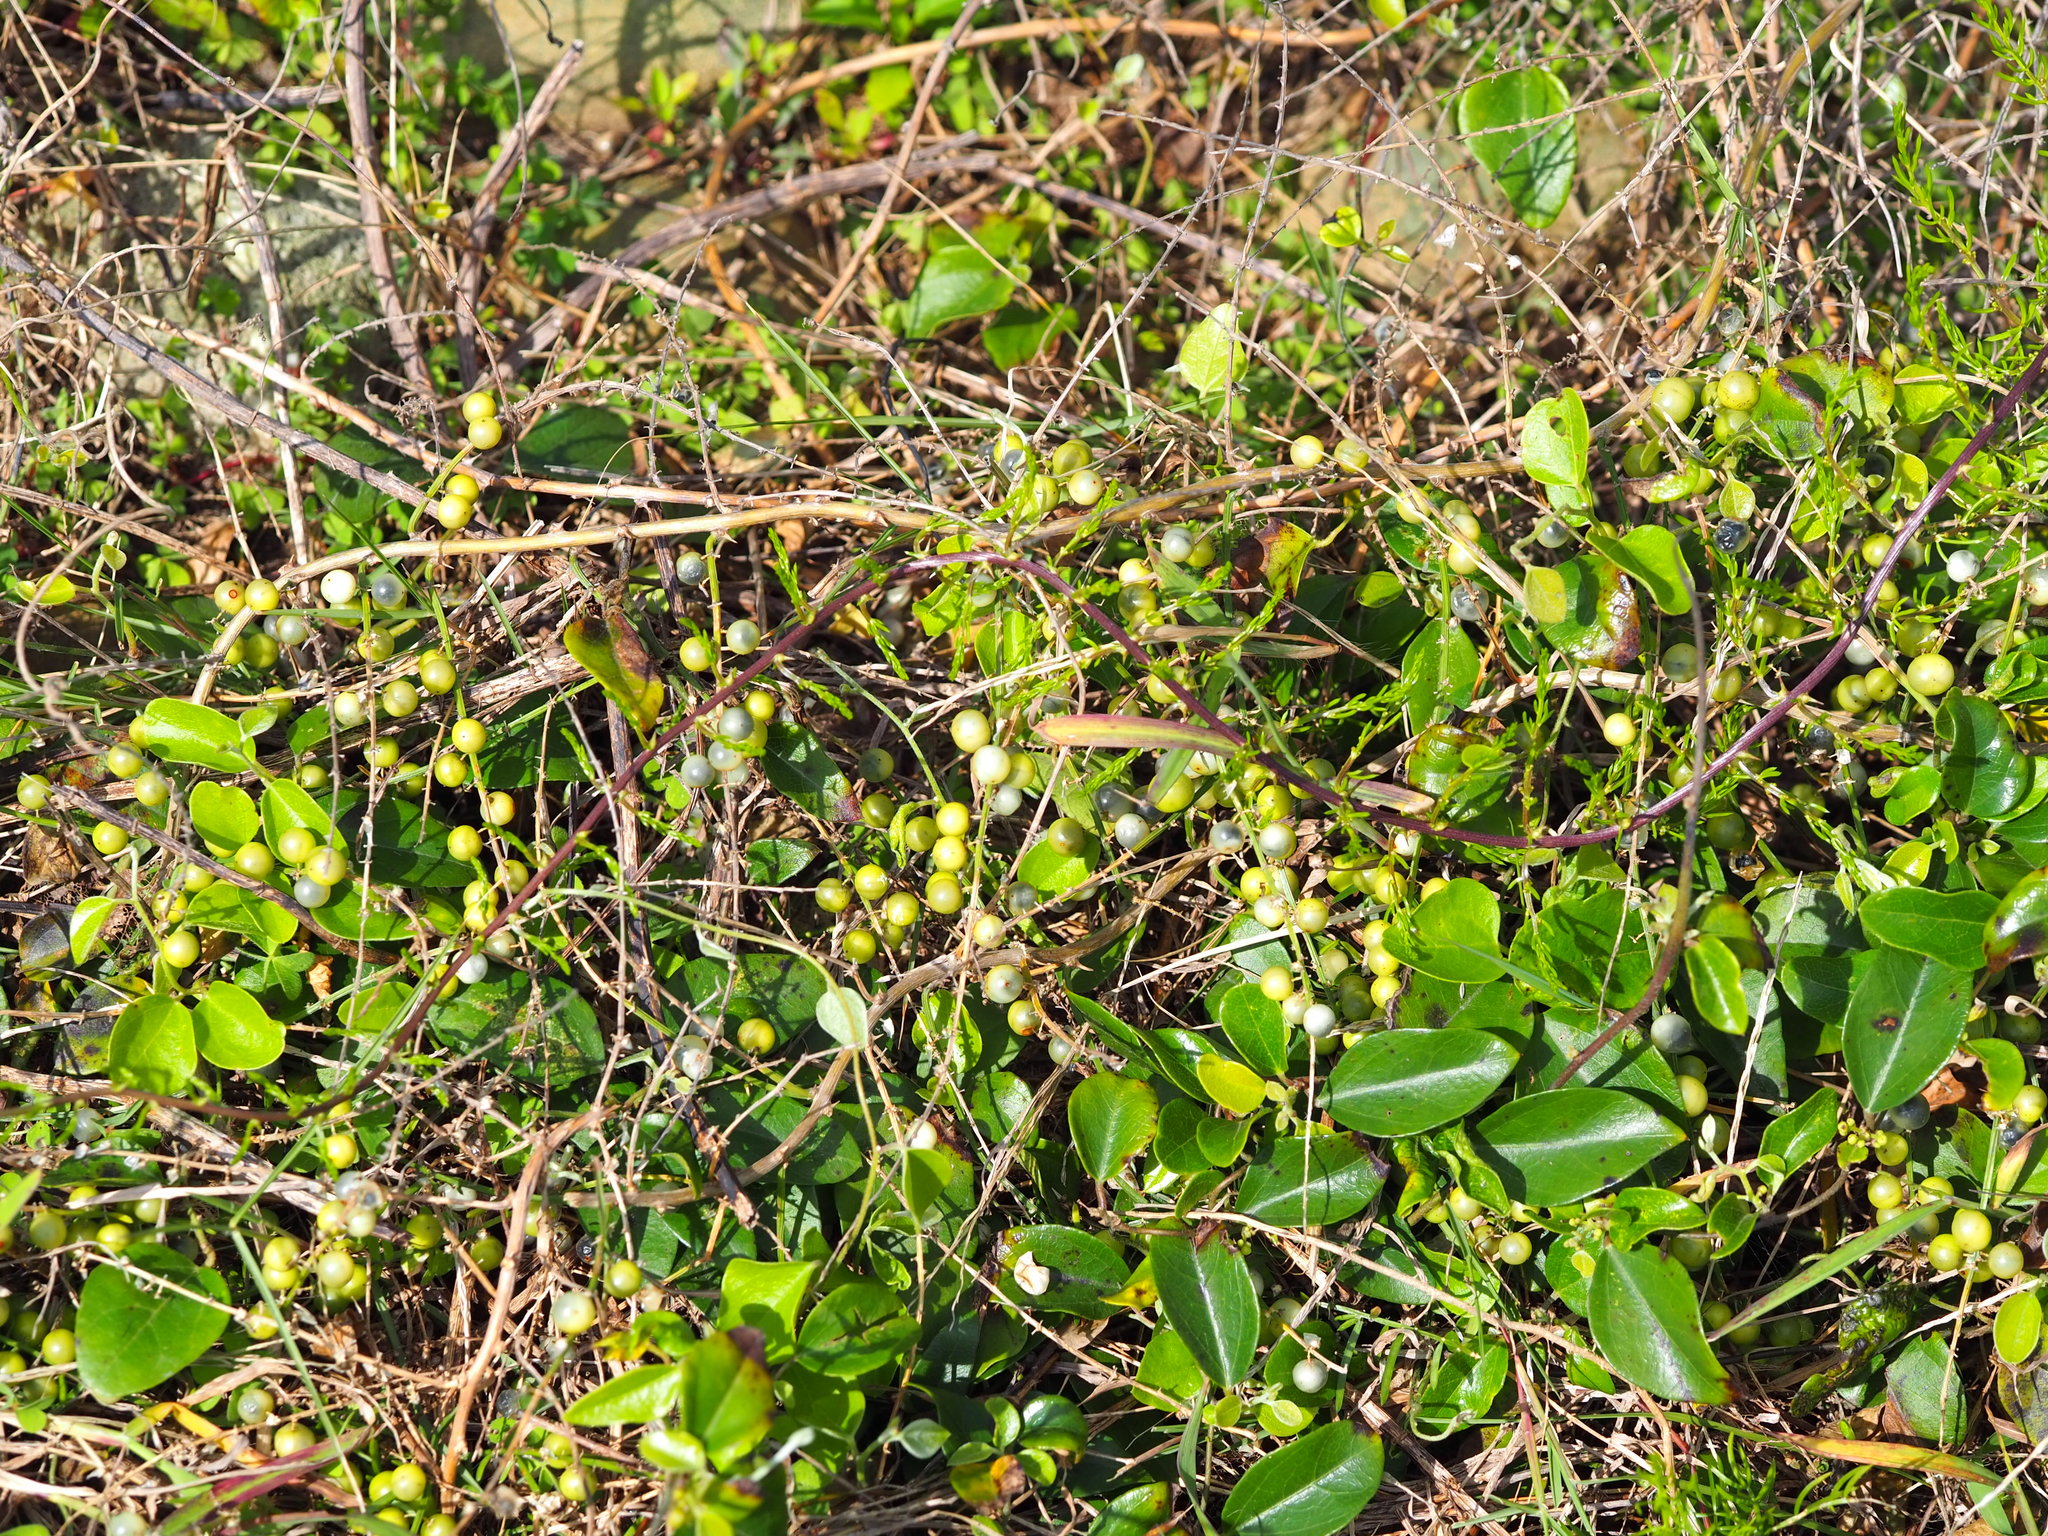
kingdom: Plantae
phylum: Tracheophyta
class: Liliopsida
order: Asparagales
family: Asparagaceae
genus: Asparagus
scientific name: Asparagus cochinchinensis
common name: Chinese asparagus
